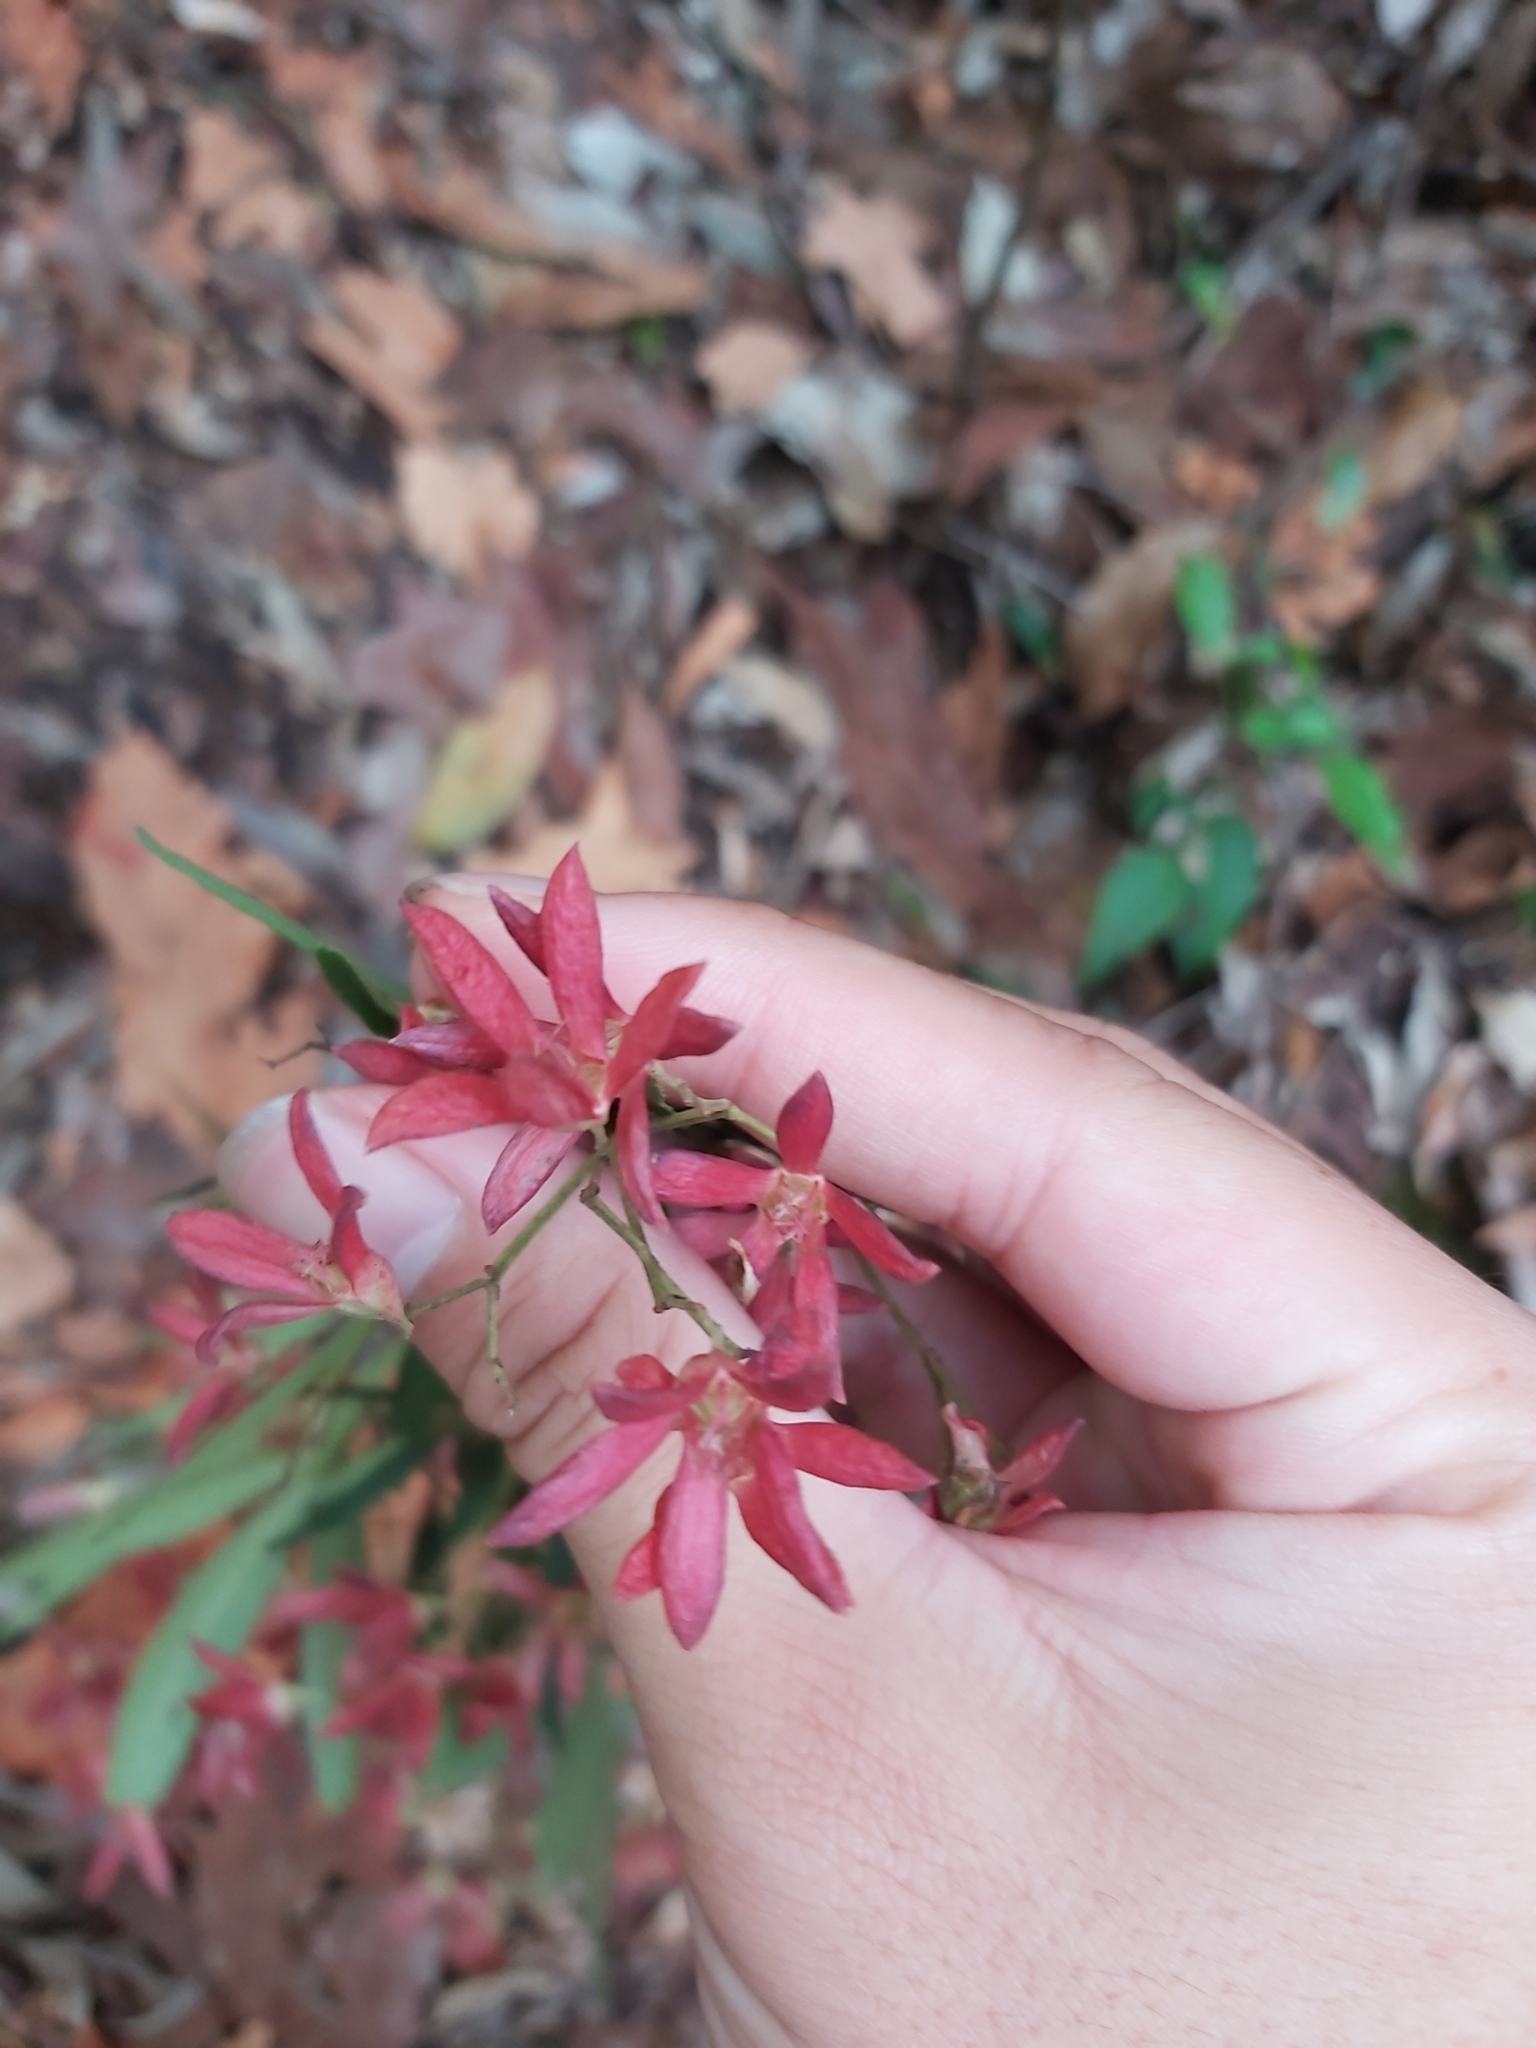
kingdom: Plantae
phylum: Tracheophyta
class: Magnoliopsida
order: Oxalidales
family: Cunoniaceae
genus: Ceratopetalum
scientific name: Ceratopetalum gummiferum
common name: Christmasbush
